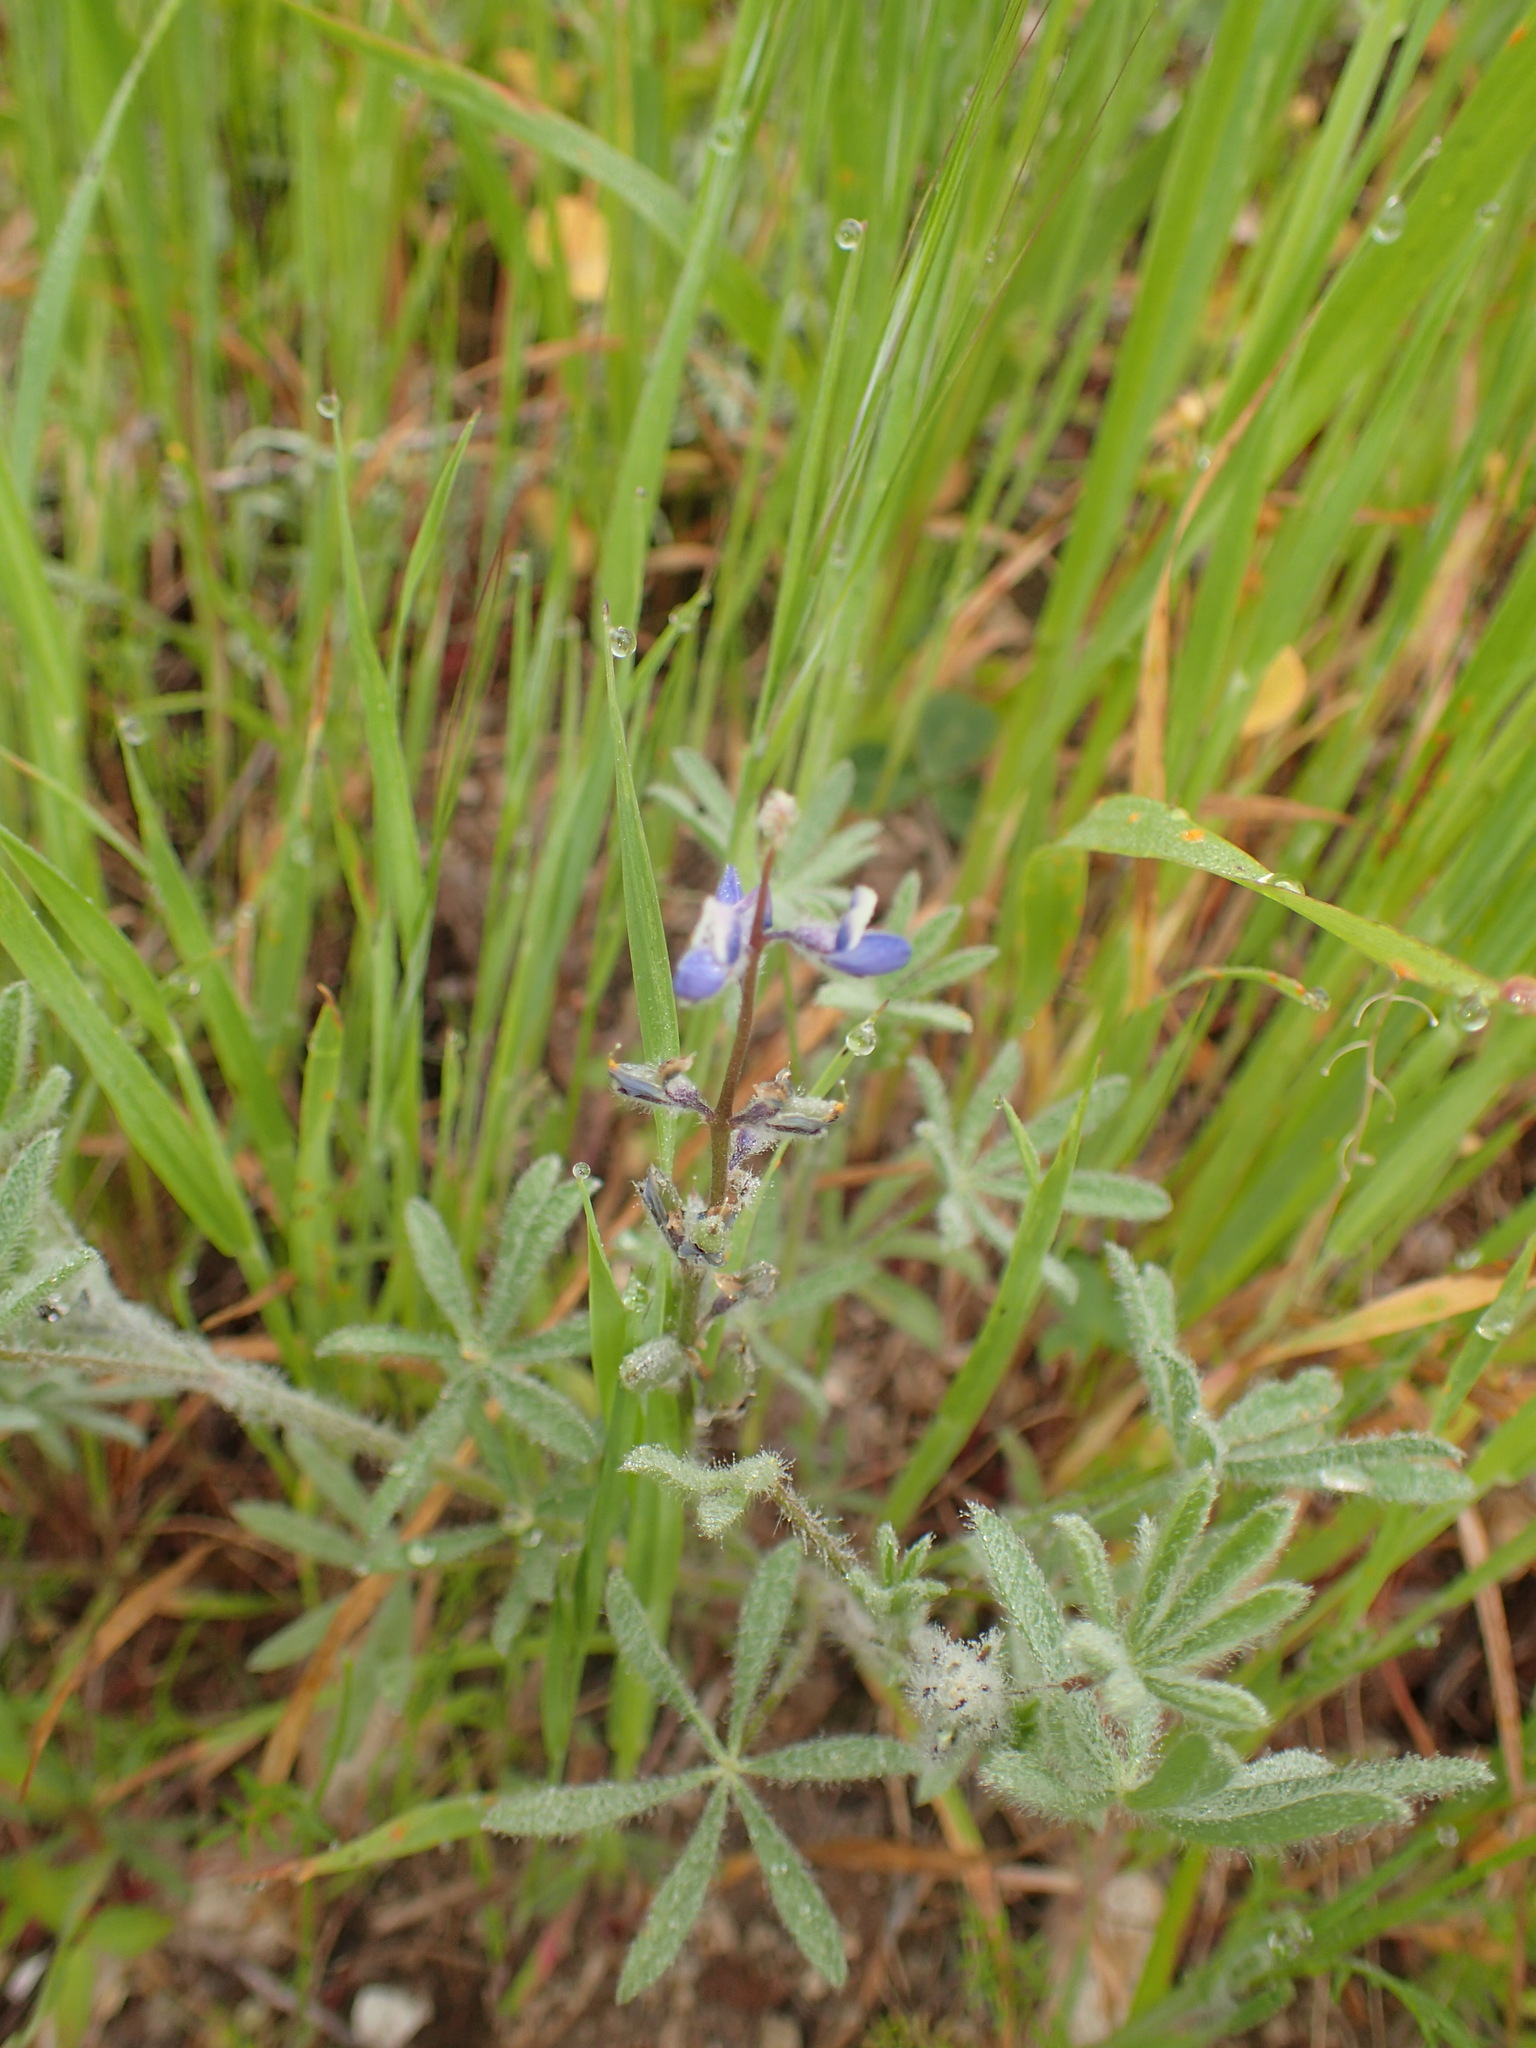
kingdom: Plantae
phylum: Tracheophyta
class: Magnoliopsida
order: Fabales
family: Fabaceae
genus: Lupinus
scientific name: Lupinus bicolor
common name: Miniature lupine
